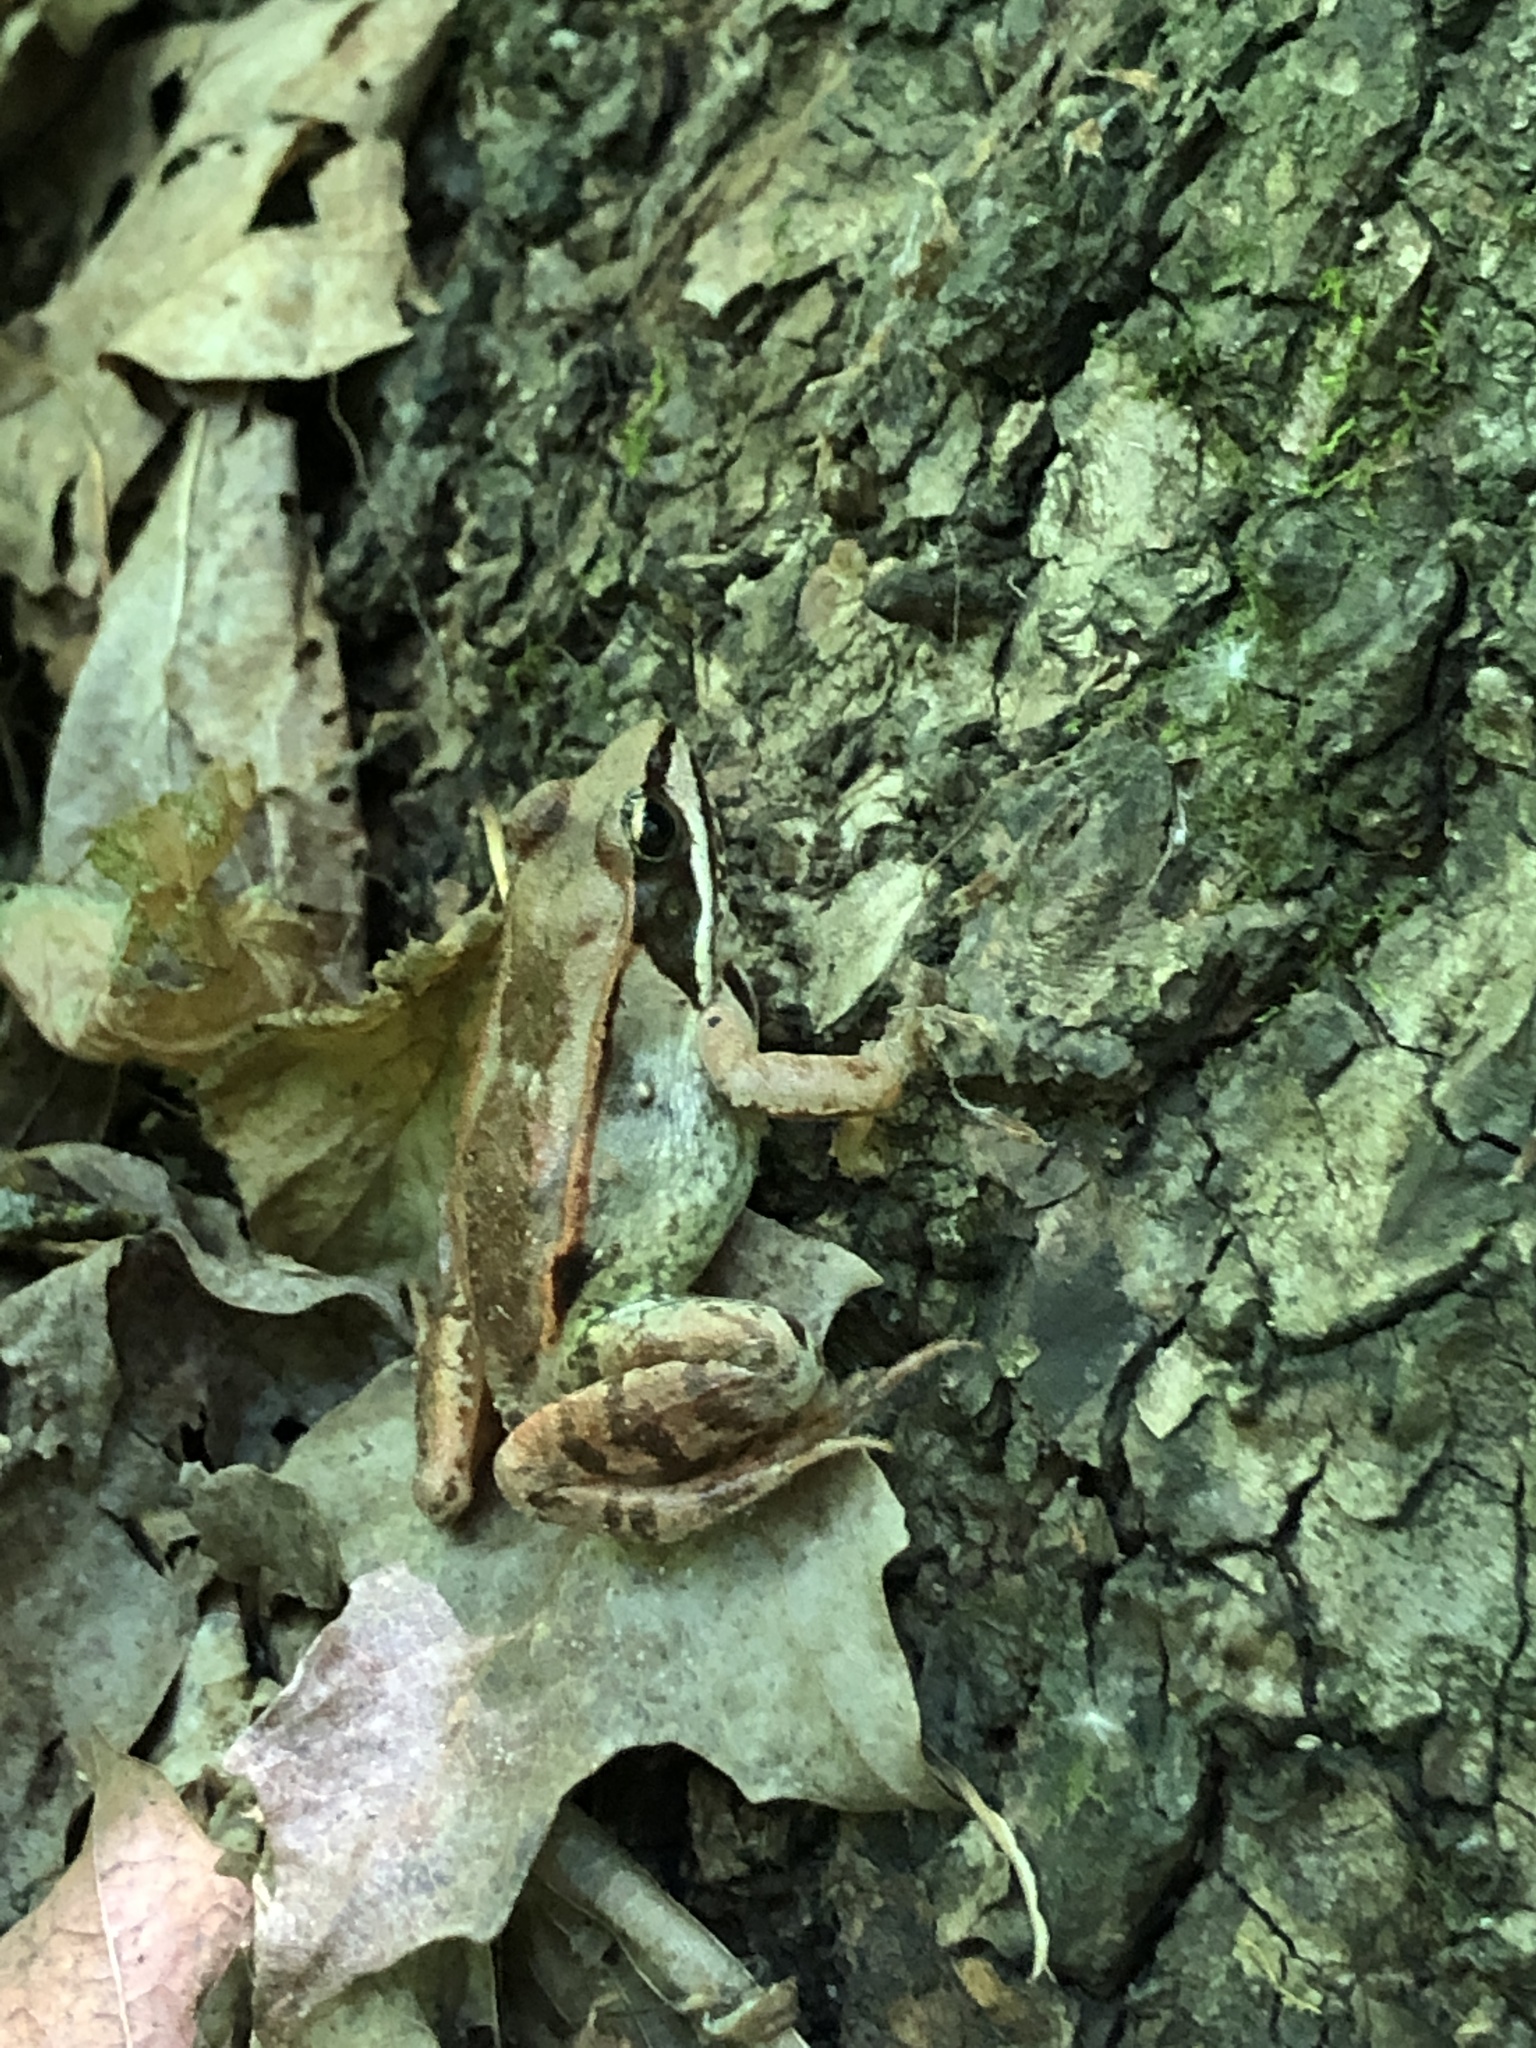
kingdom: Animalia
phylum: Chordata
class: Amphibia
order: Anura
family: Ranidae
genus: Lithobates
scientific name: Lithobates sylvaticus
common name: Wood frog
